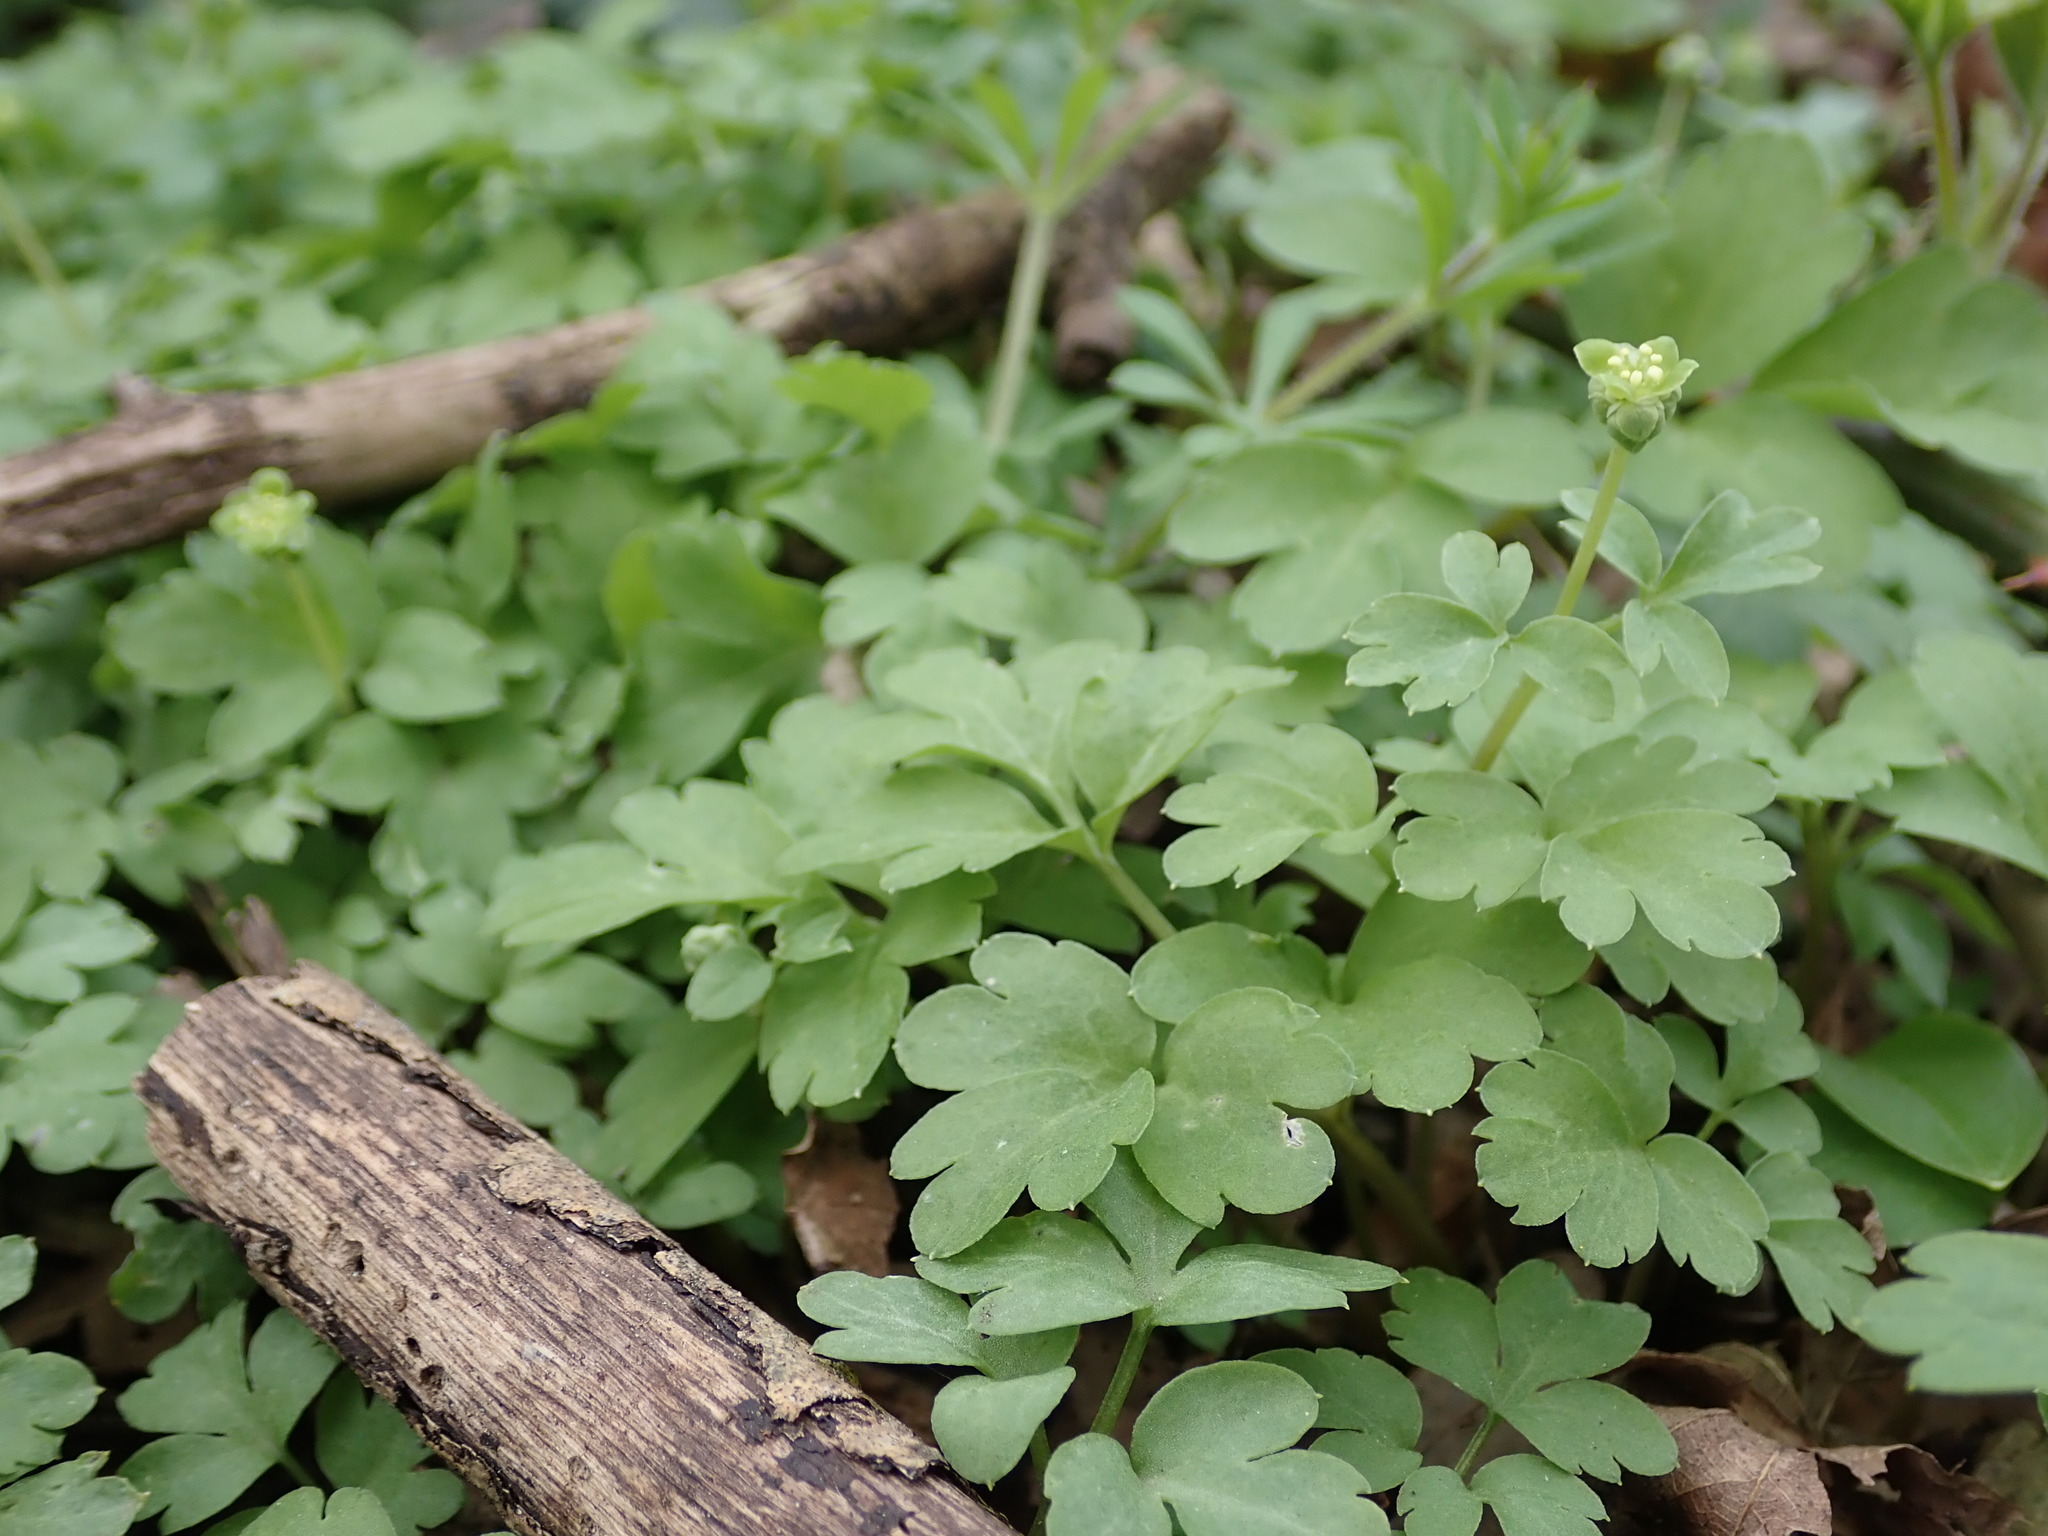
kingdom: Plantae
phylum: Tracheophyta
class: Magnoliopsida
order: Dipsacales
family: Viburnaceae
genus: Adoxa
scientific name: Adoxa moschatellina
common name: Moschatel
